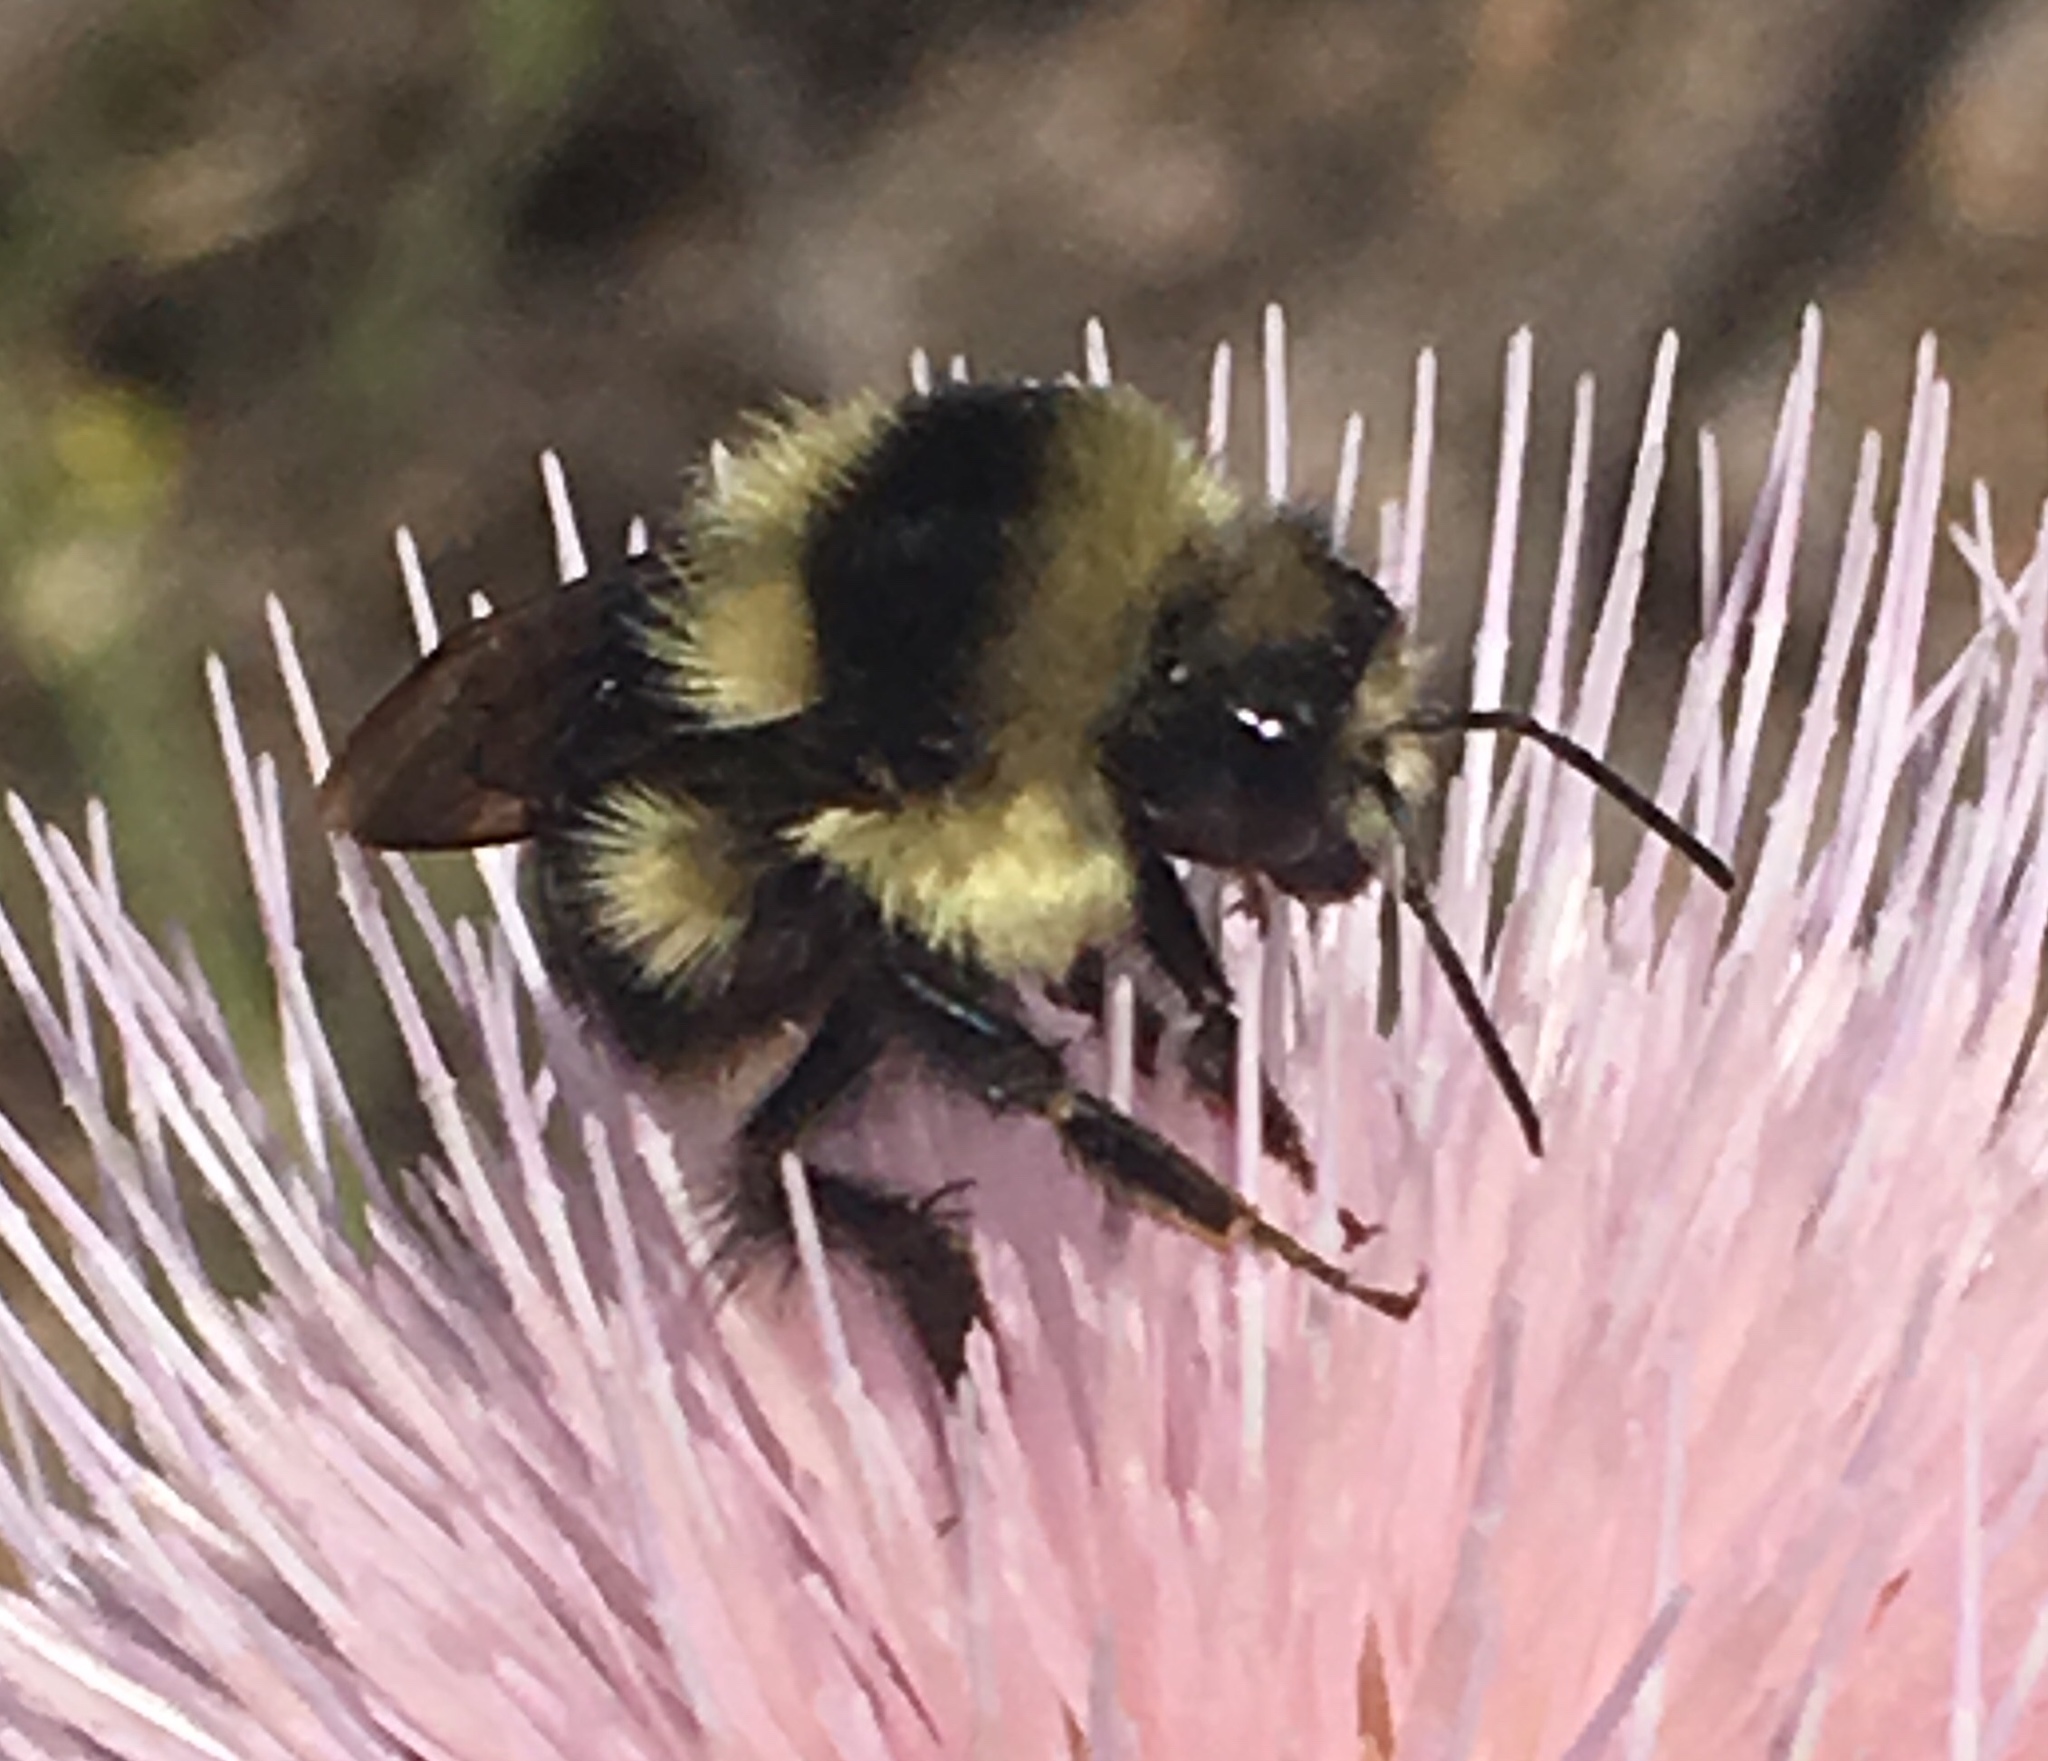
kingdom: Animalia
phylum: Arthropoda
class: Insecta
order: Hymenoptera
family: Apidae
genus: Bombus
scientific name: Bombus melanopygus
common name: Black tail bumble bee
